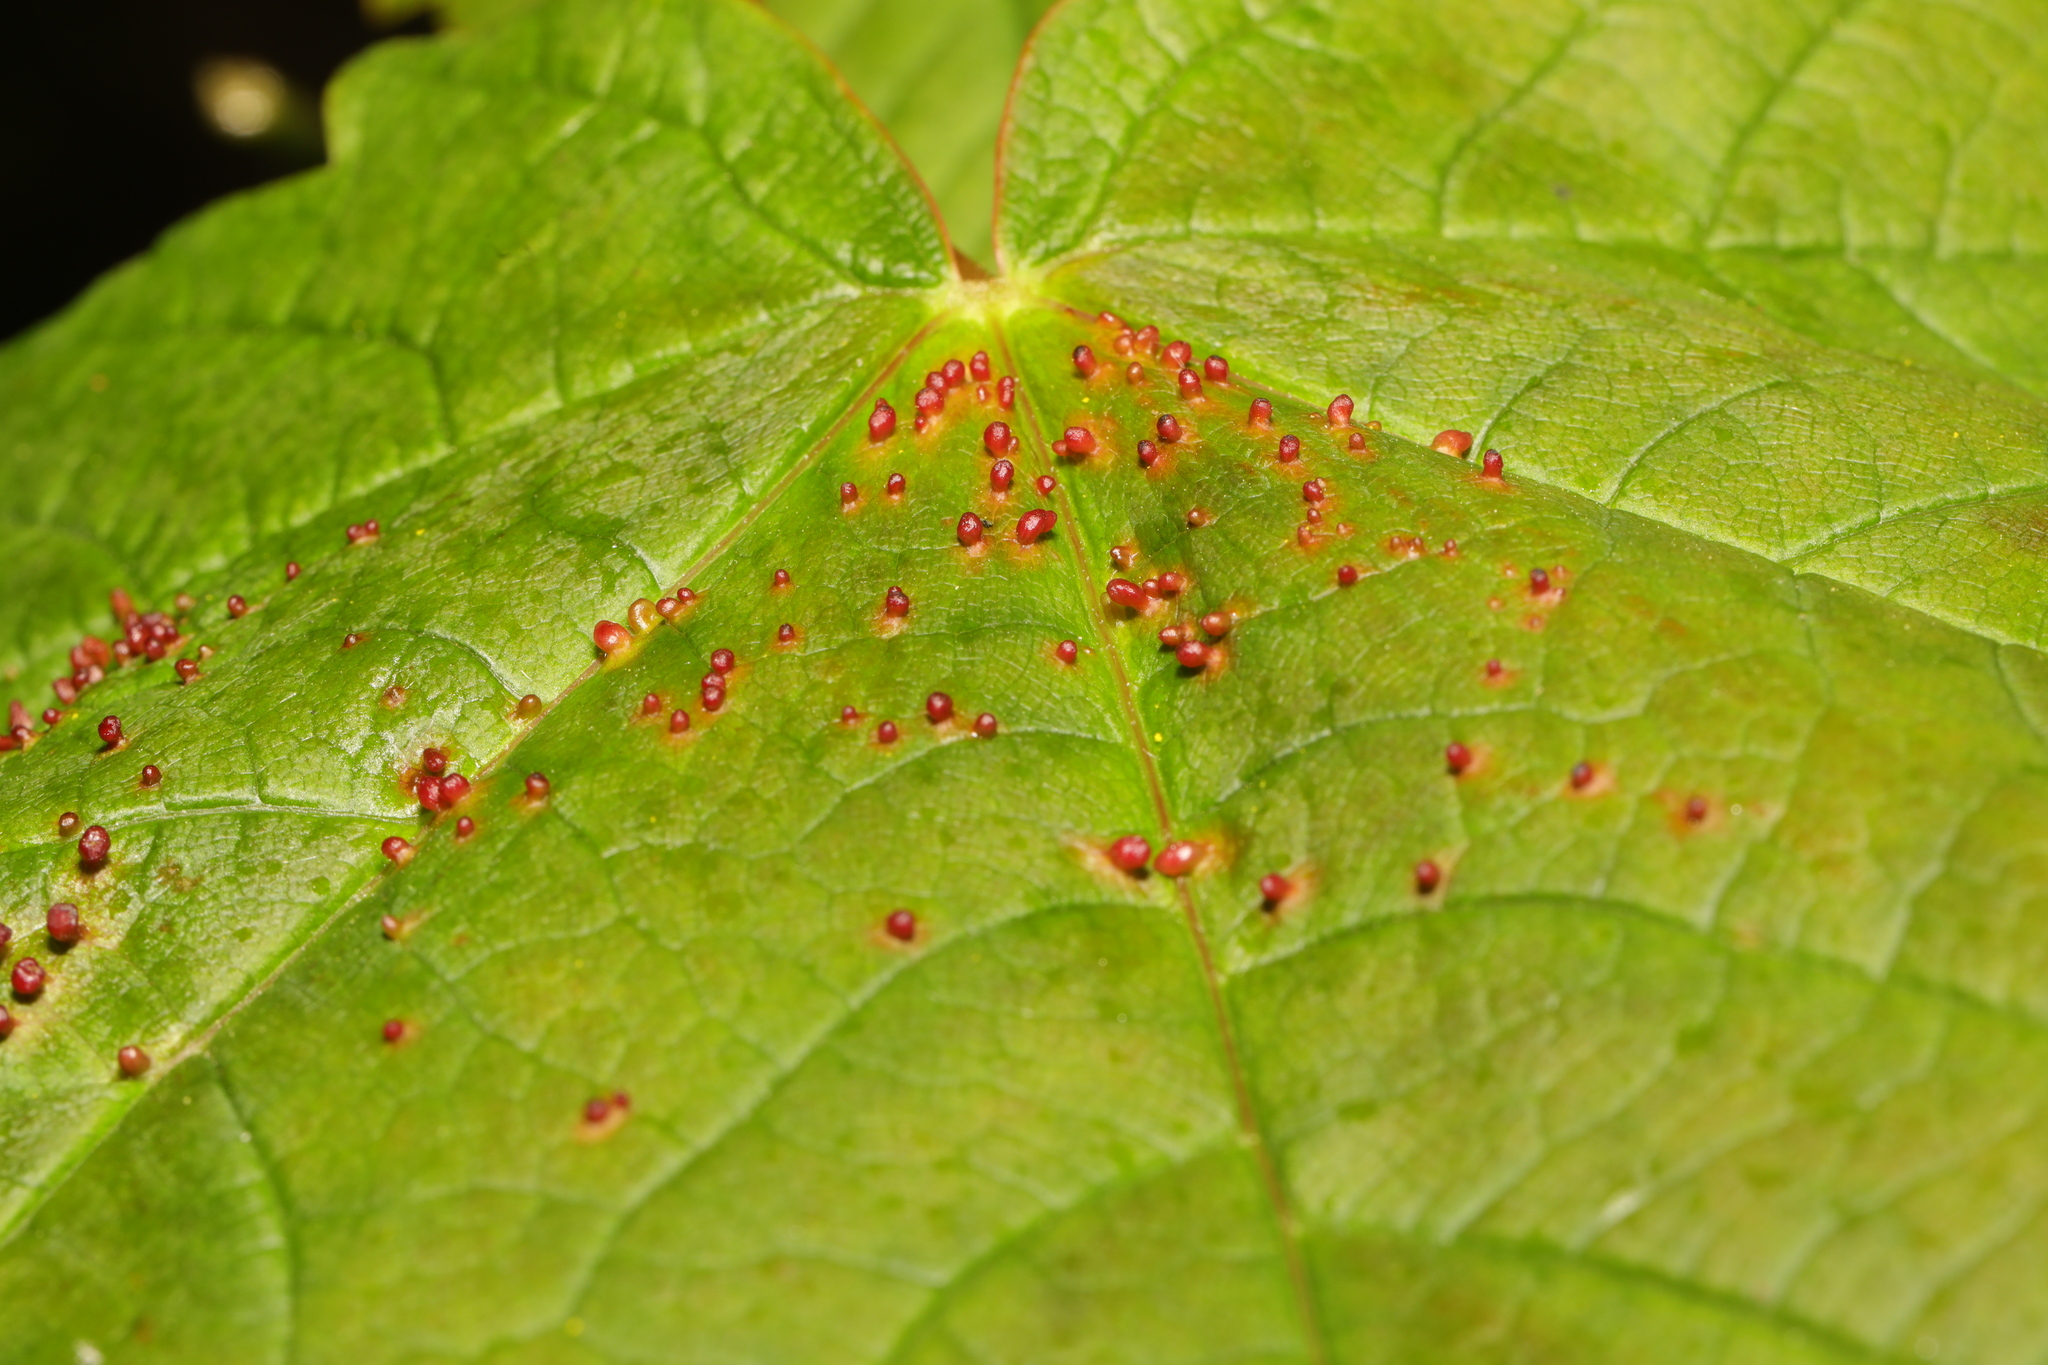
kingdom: Animalia
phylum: Arthropoda
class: Arachnida
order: Trombidiformes
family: Eriophyidae
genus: Aceria
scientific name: Aceria cephaloneus
